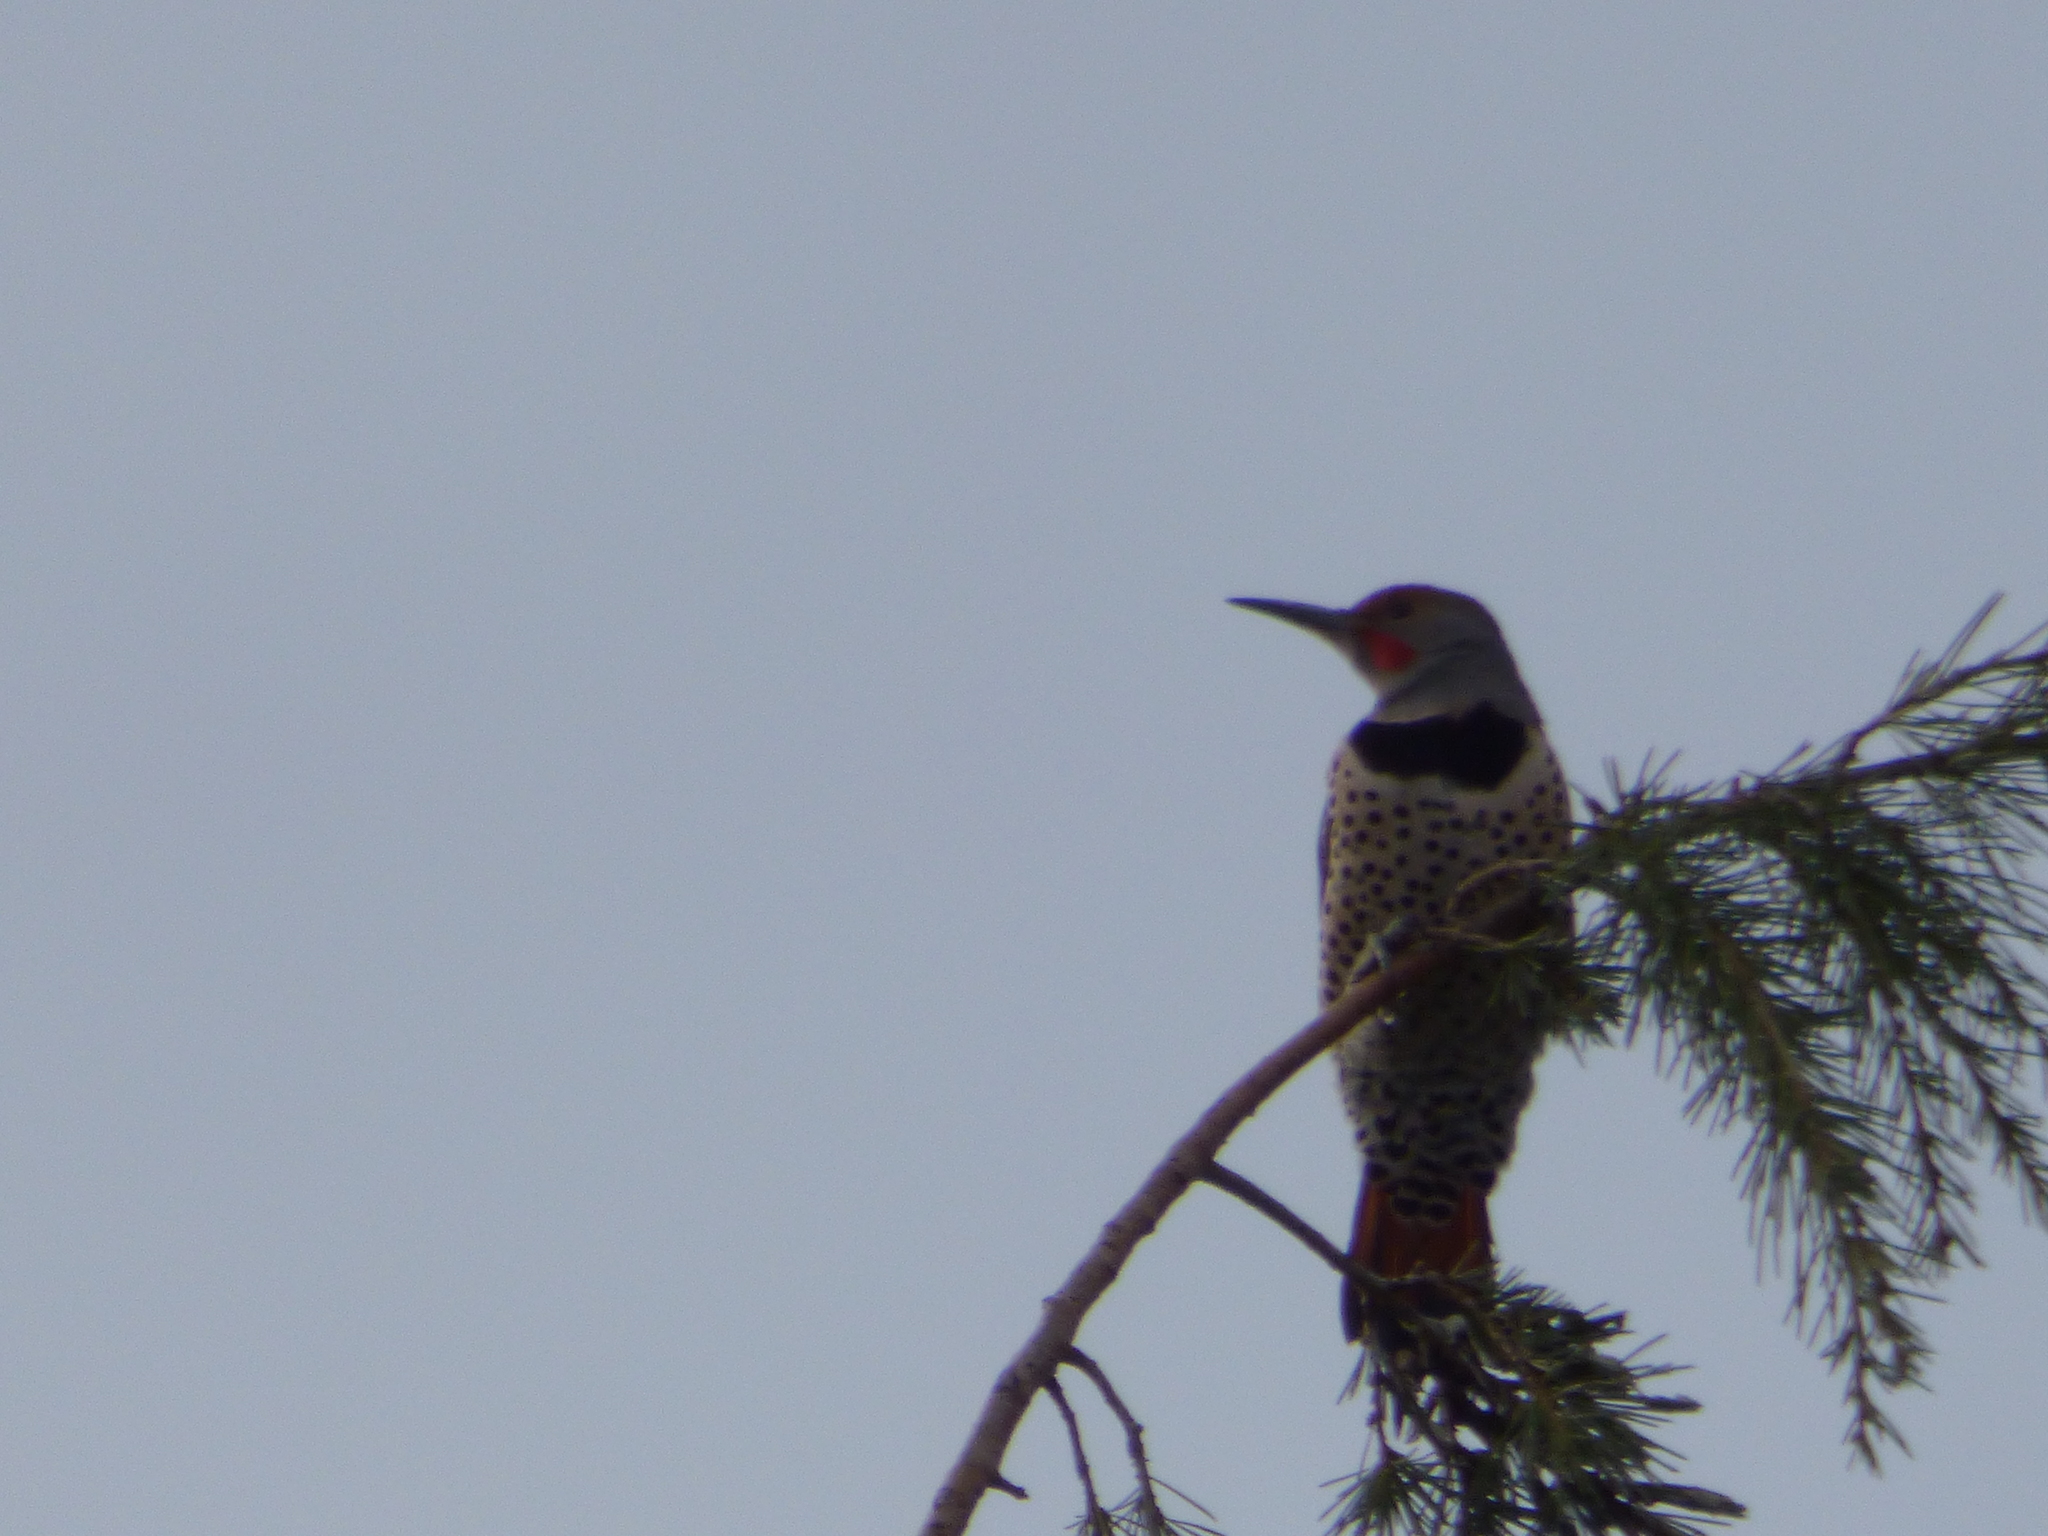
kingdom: Animalia
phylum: Chordata
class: Aves
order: Piciformes
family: Picidae
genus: Colaptes
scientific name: Colaptes auratus
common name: Northern flicker
